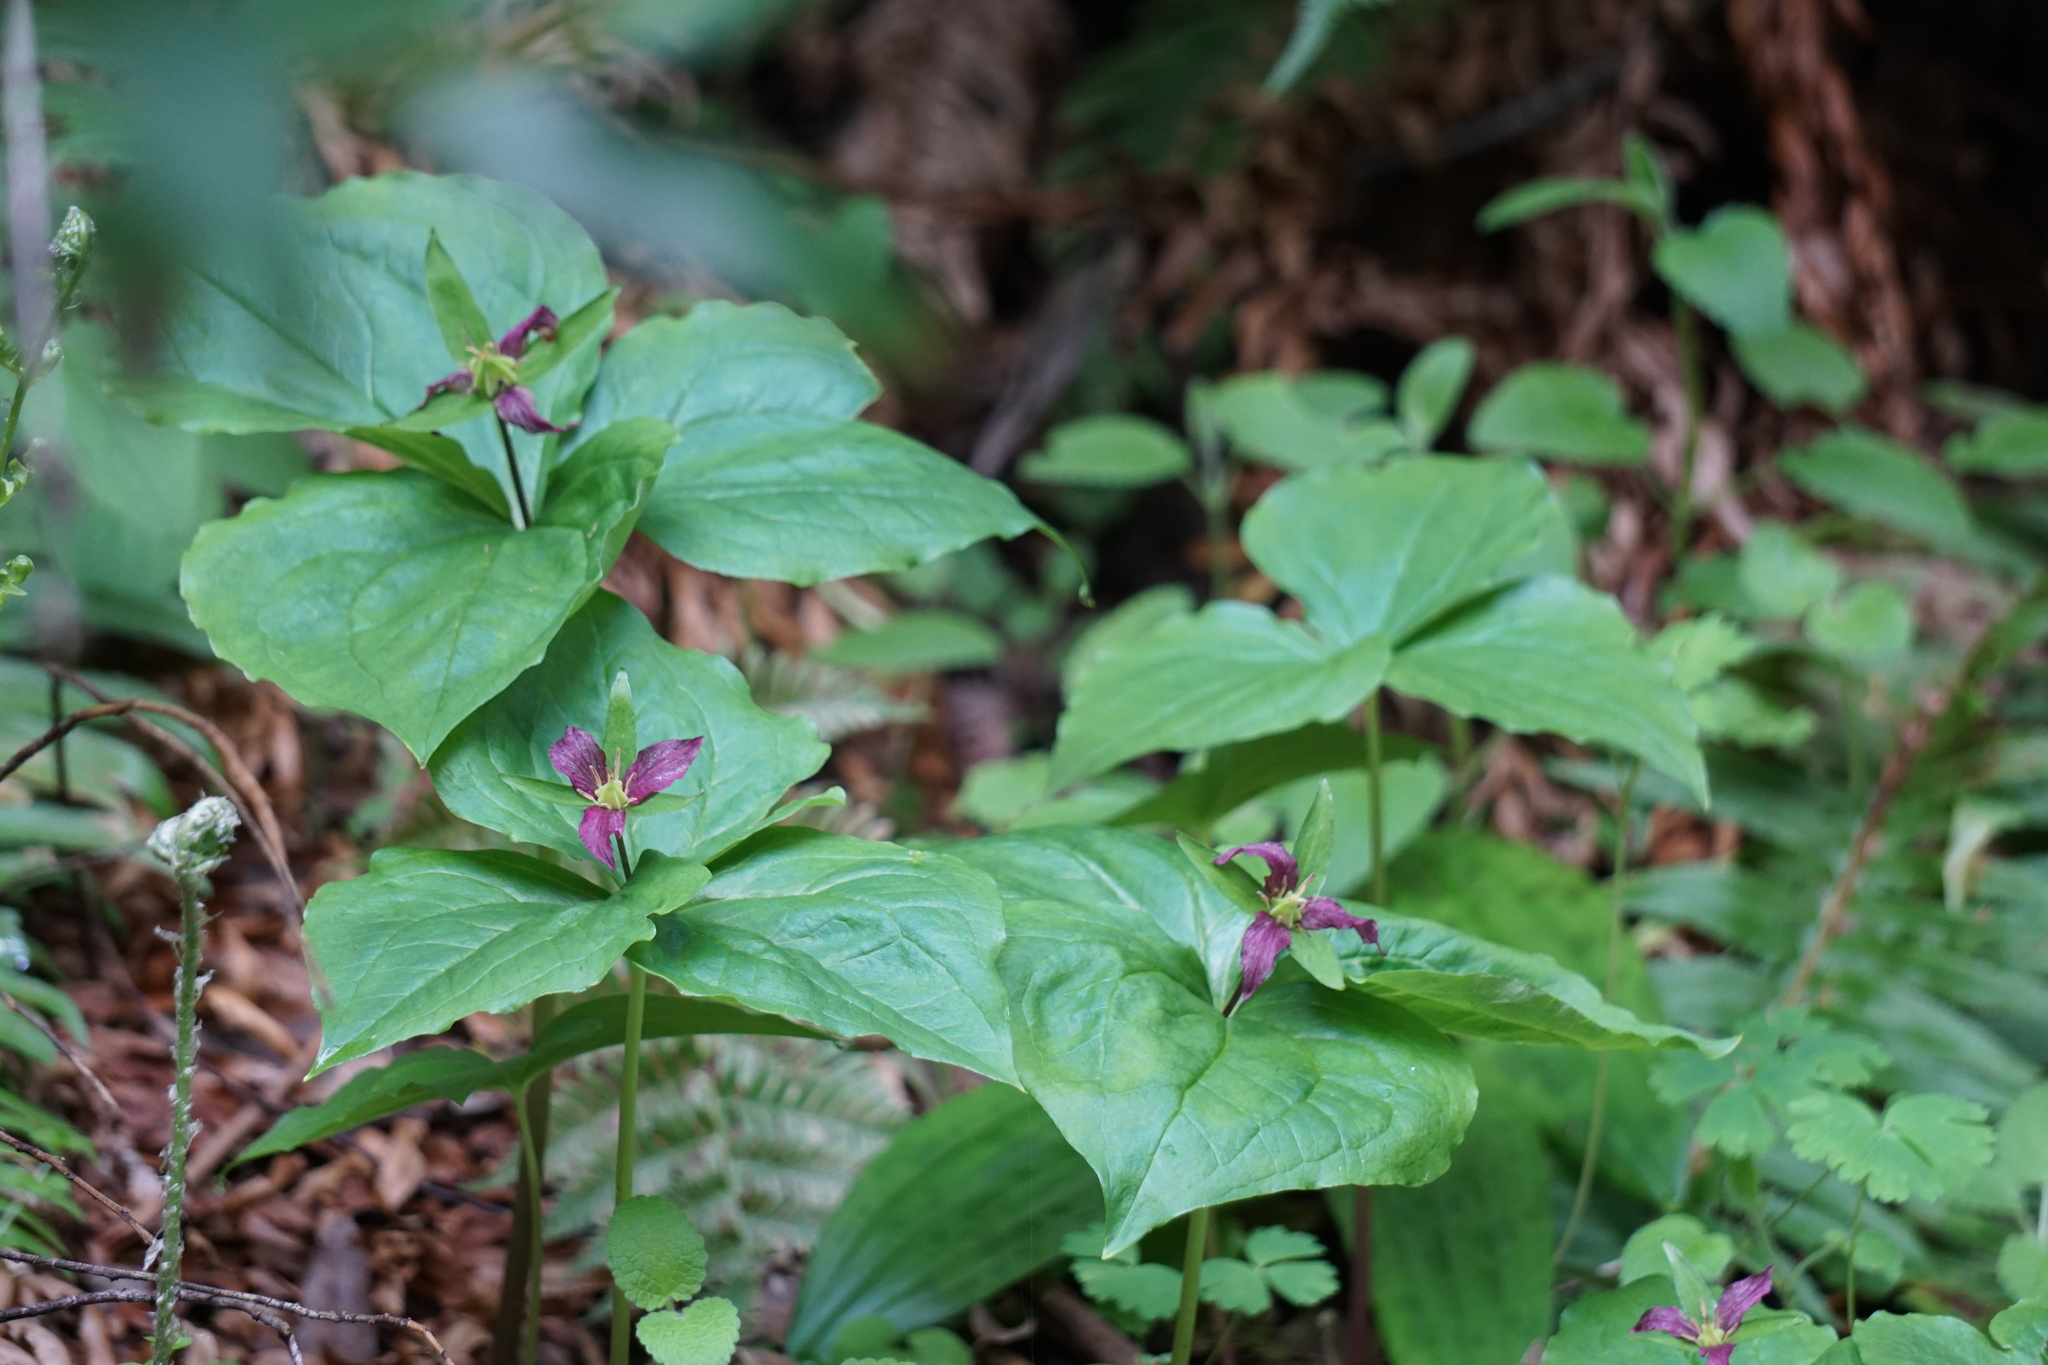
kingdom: Plantae
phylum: Tracheophyta
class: Liliopsida
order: Liliales
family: Melanthiaceae
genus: Trillium
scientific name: Trillium ovatum
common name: Pacific trillium
